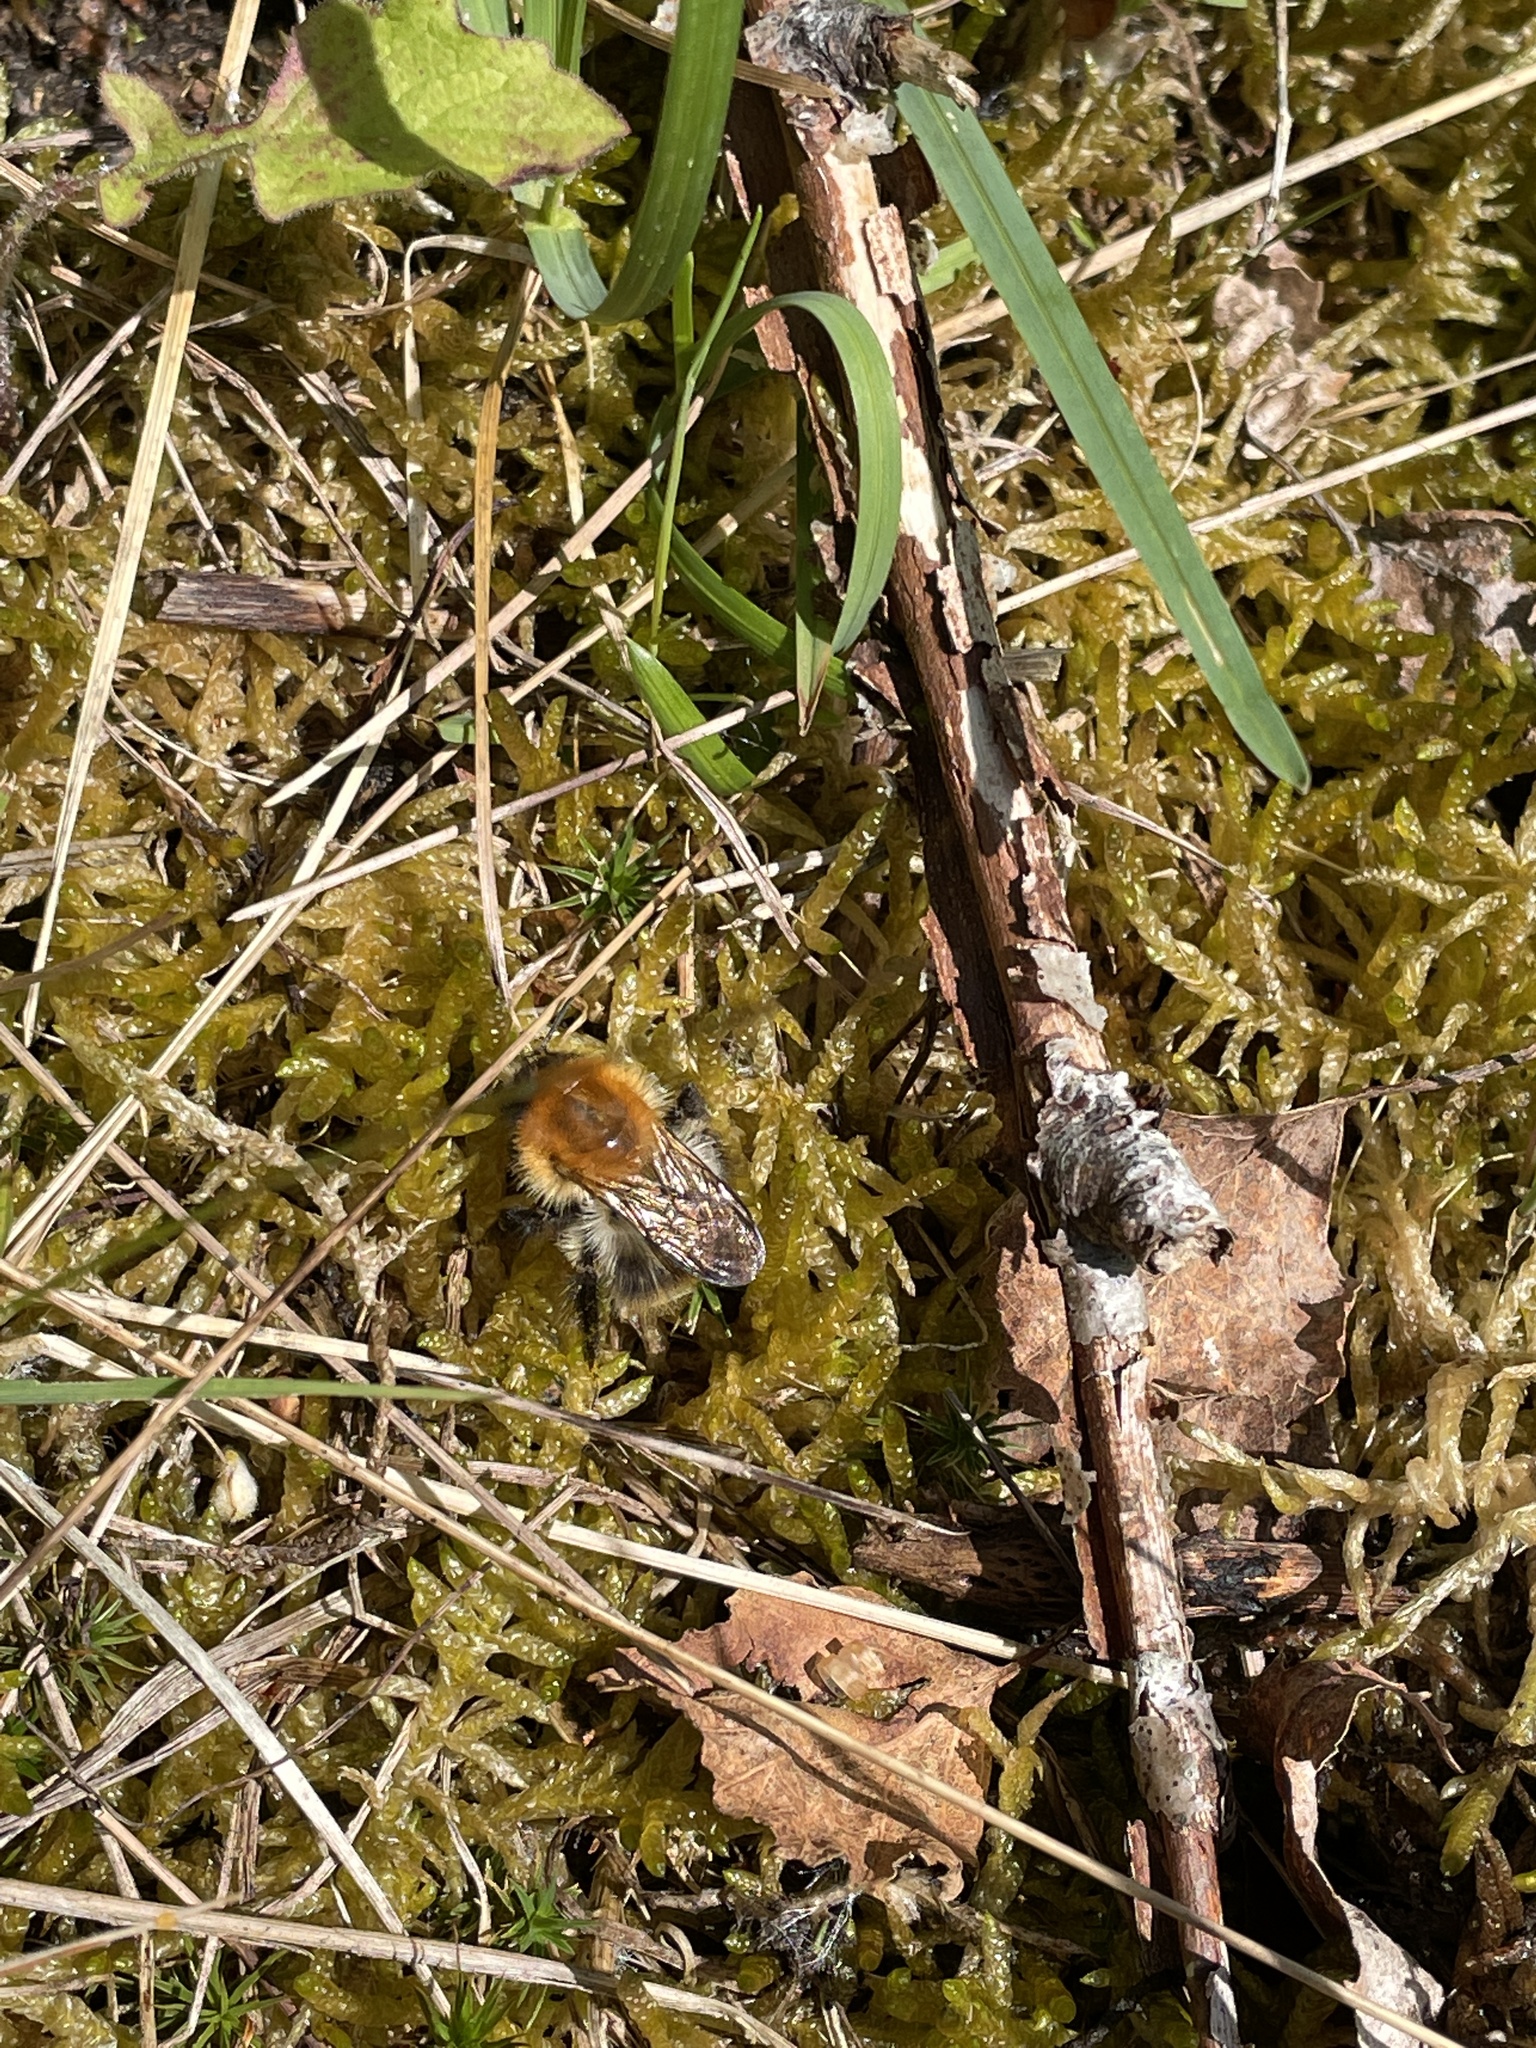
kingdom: Animalia
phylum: Arthropoda
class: Insecta
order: Hymenoptera
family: Apidae
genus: Bombus
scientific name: Bombus pascuorum
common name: Common carder bee
